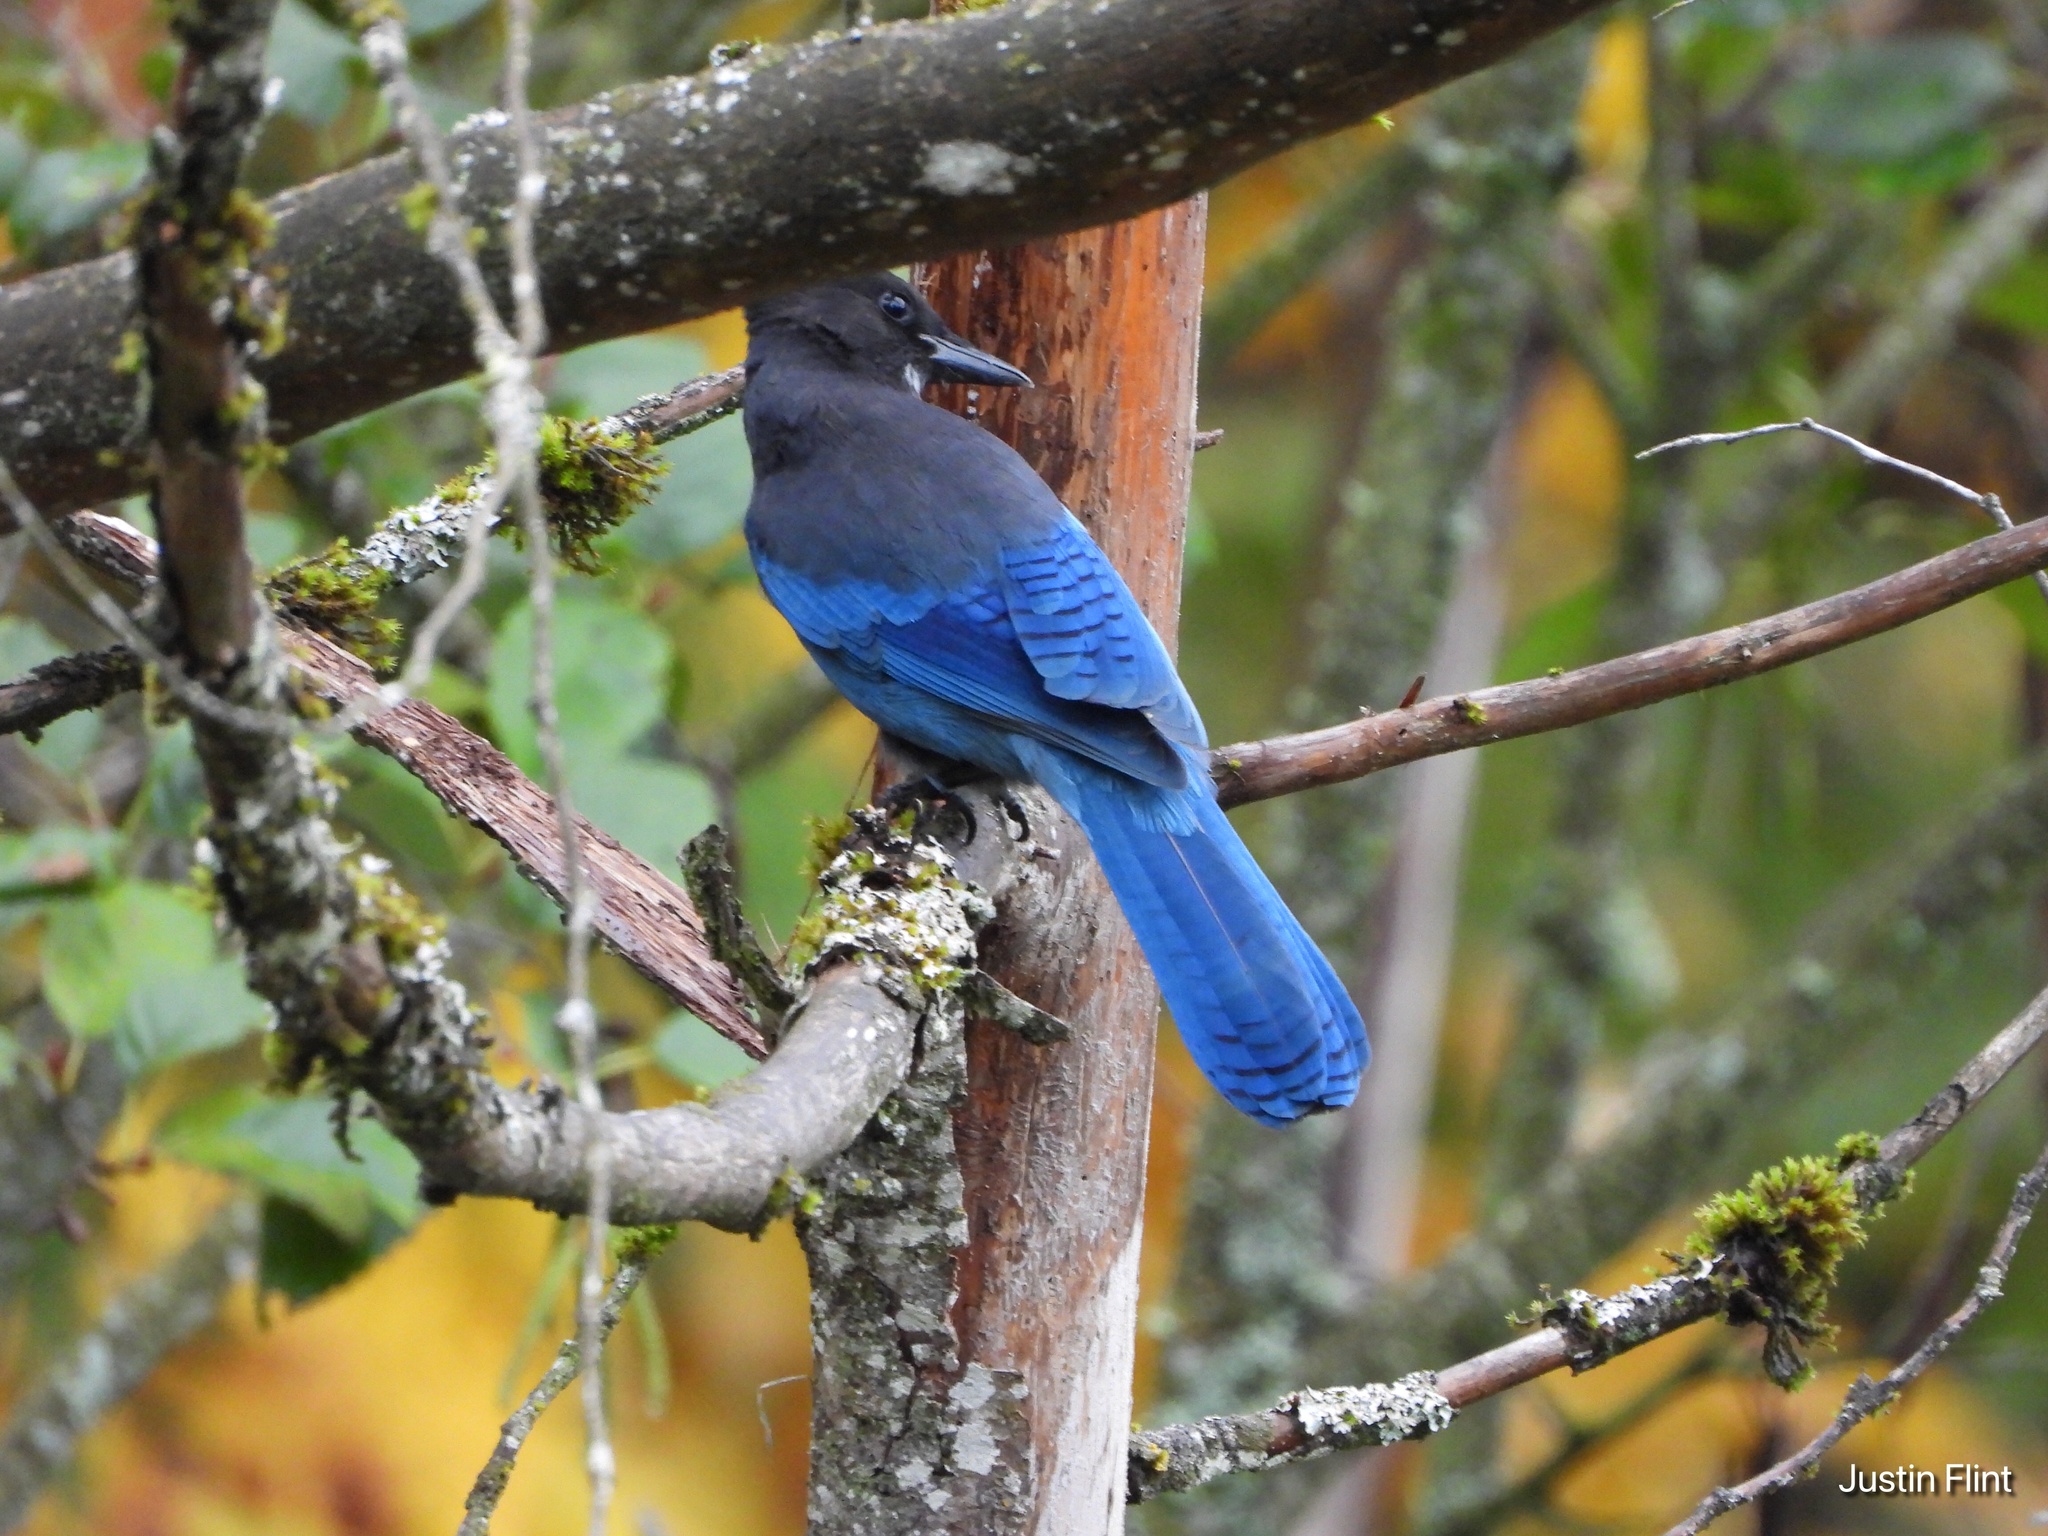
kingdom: Animalia
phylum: Chordata
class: Aves
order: Passeriformes
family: Corvidae
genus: Cyanocitta
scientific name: Cyanocitta stelleri
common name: Steller's jay
